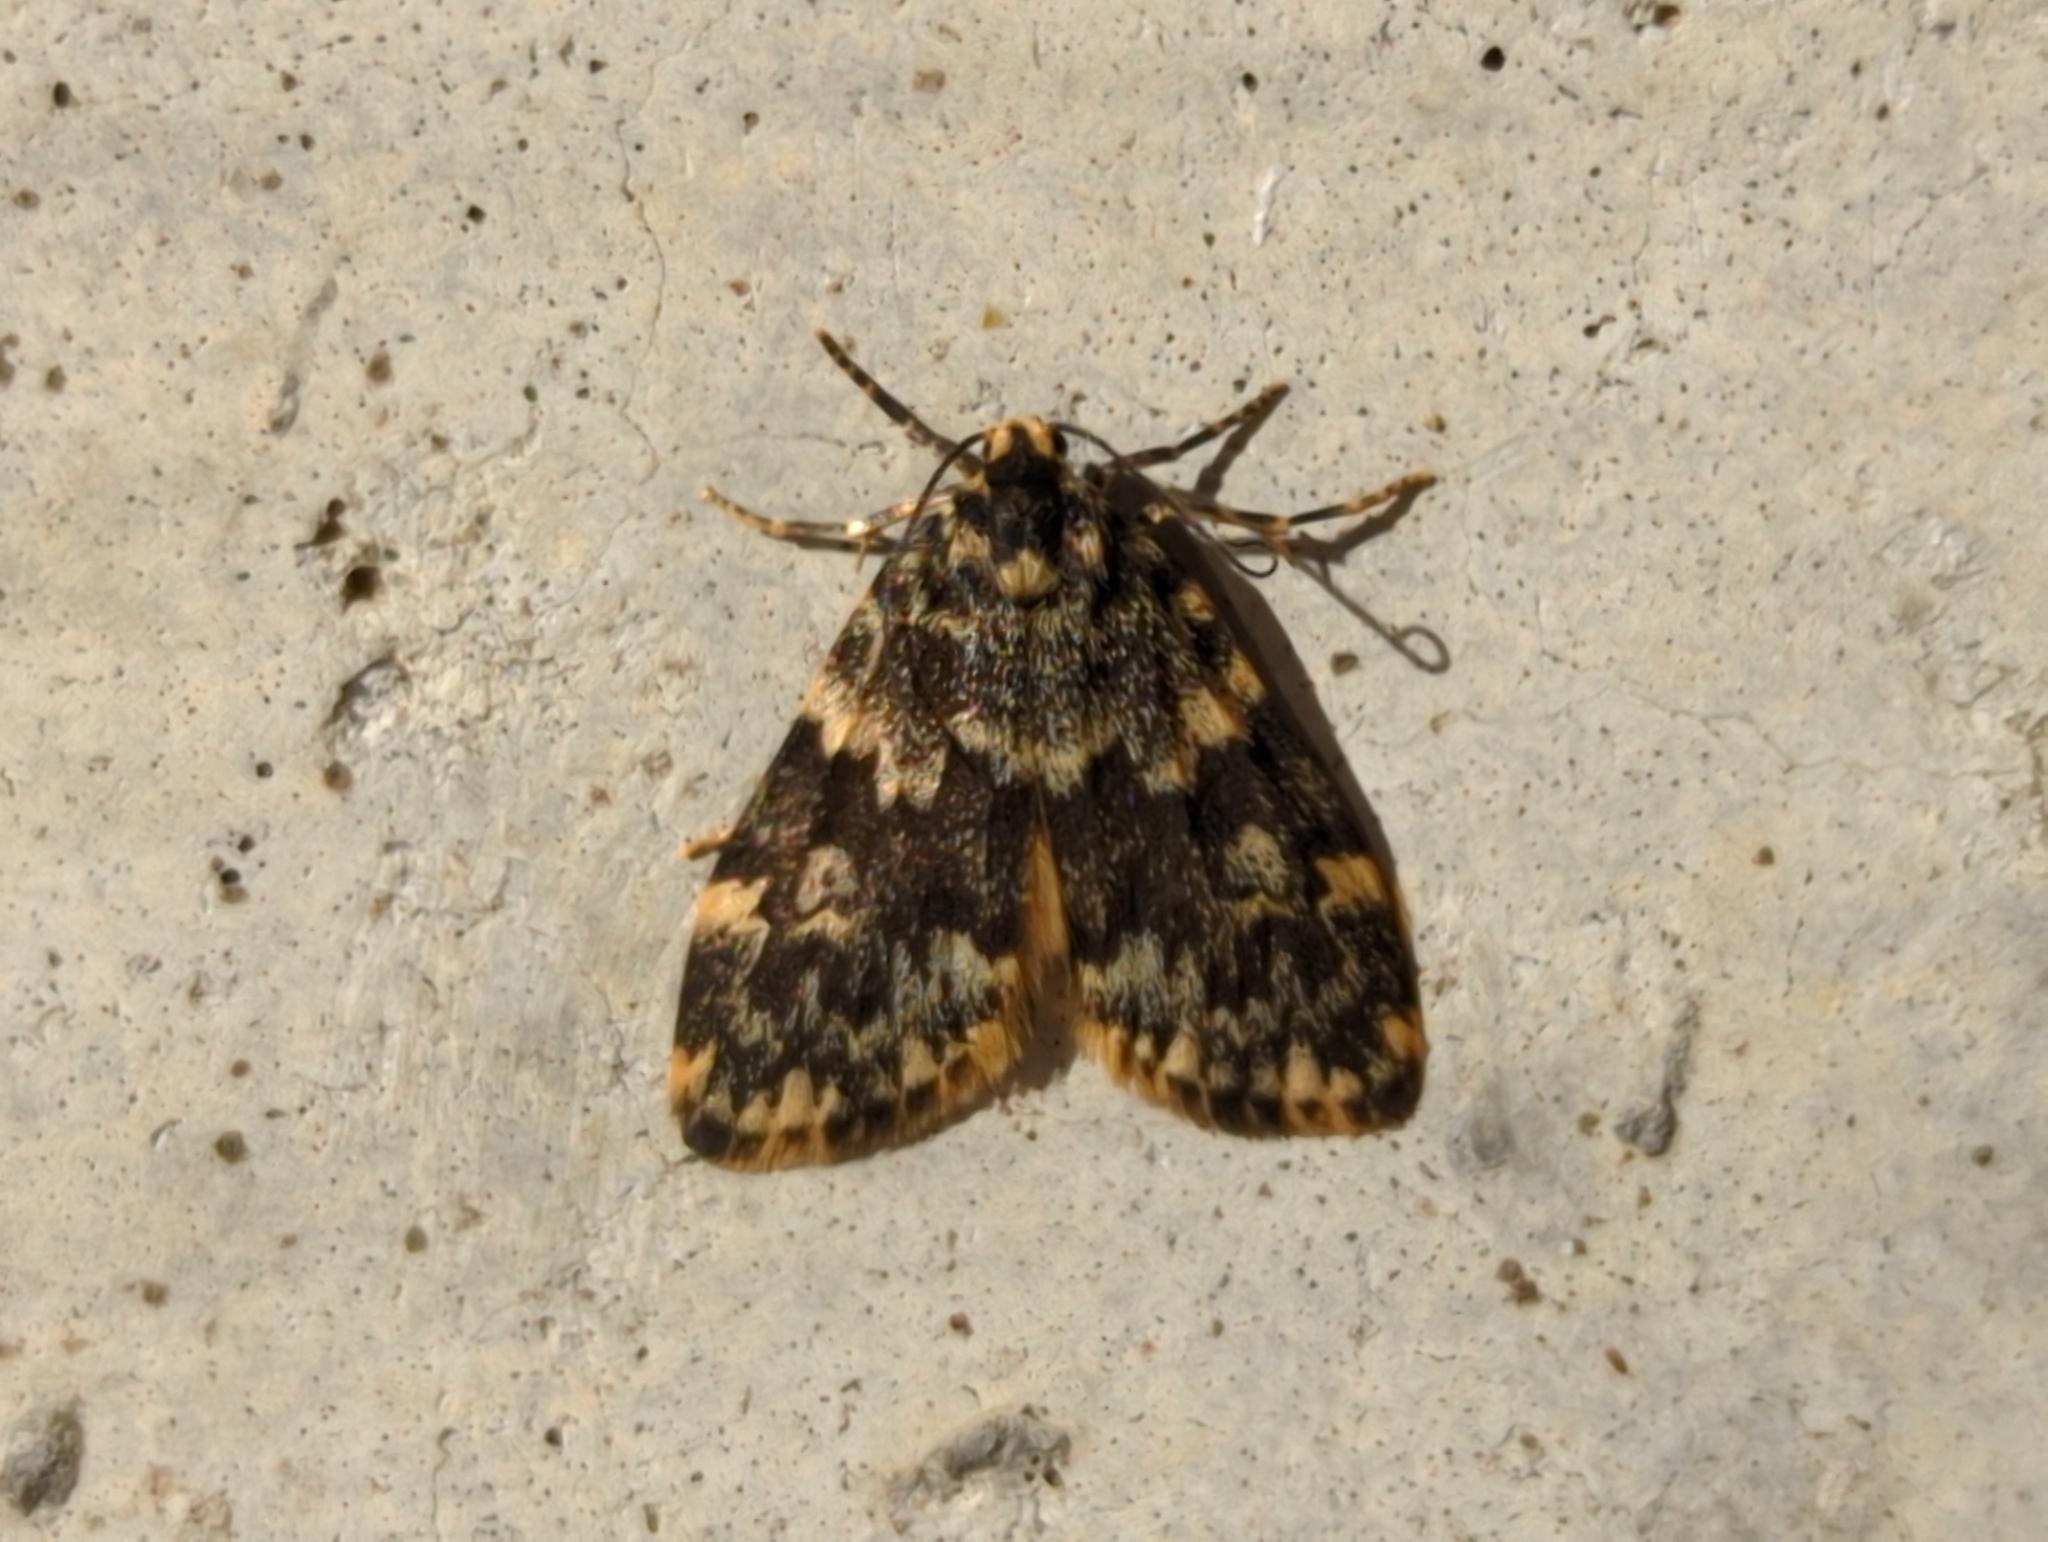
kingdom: Animalia
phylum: Arthropoda
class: Insecta
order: Lepidoptera
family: Erebidae
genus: Halone
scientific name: Halone coryphoea
